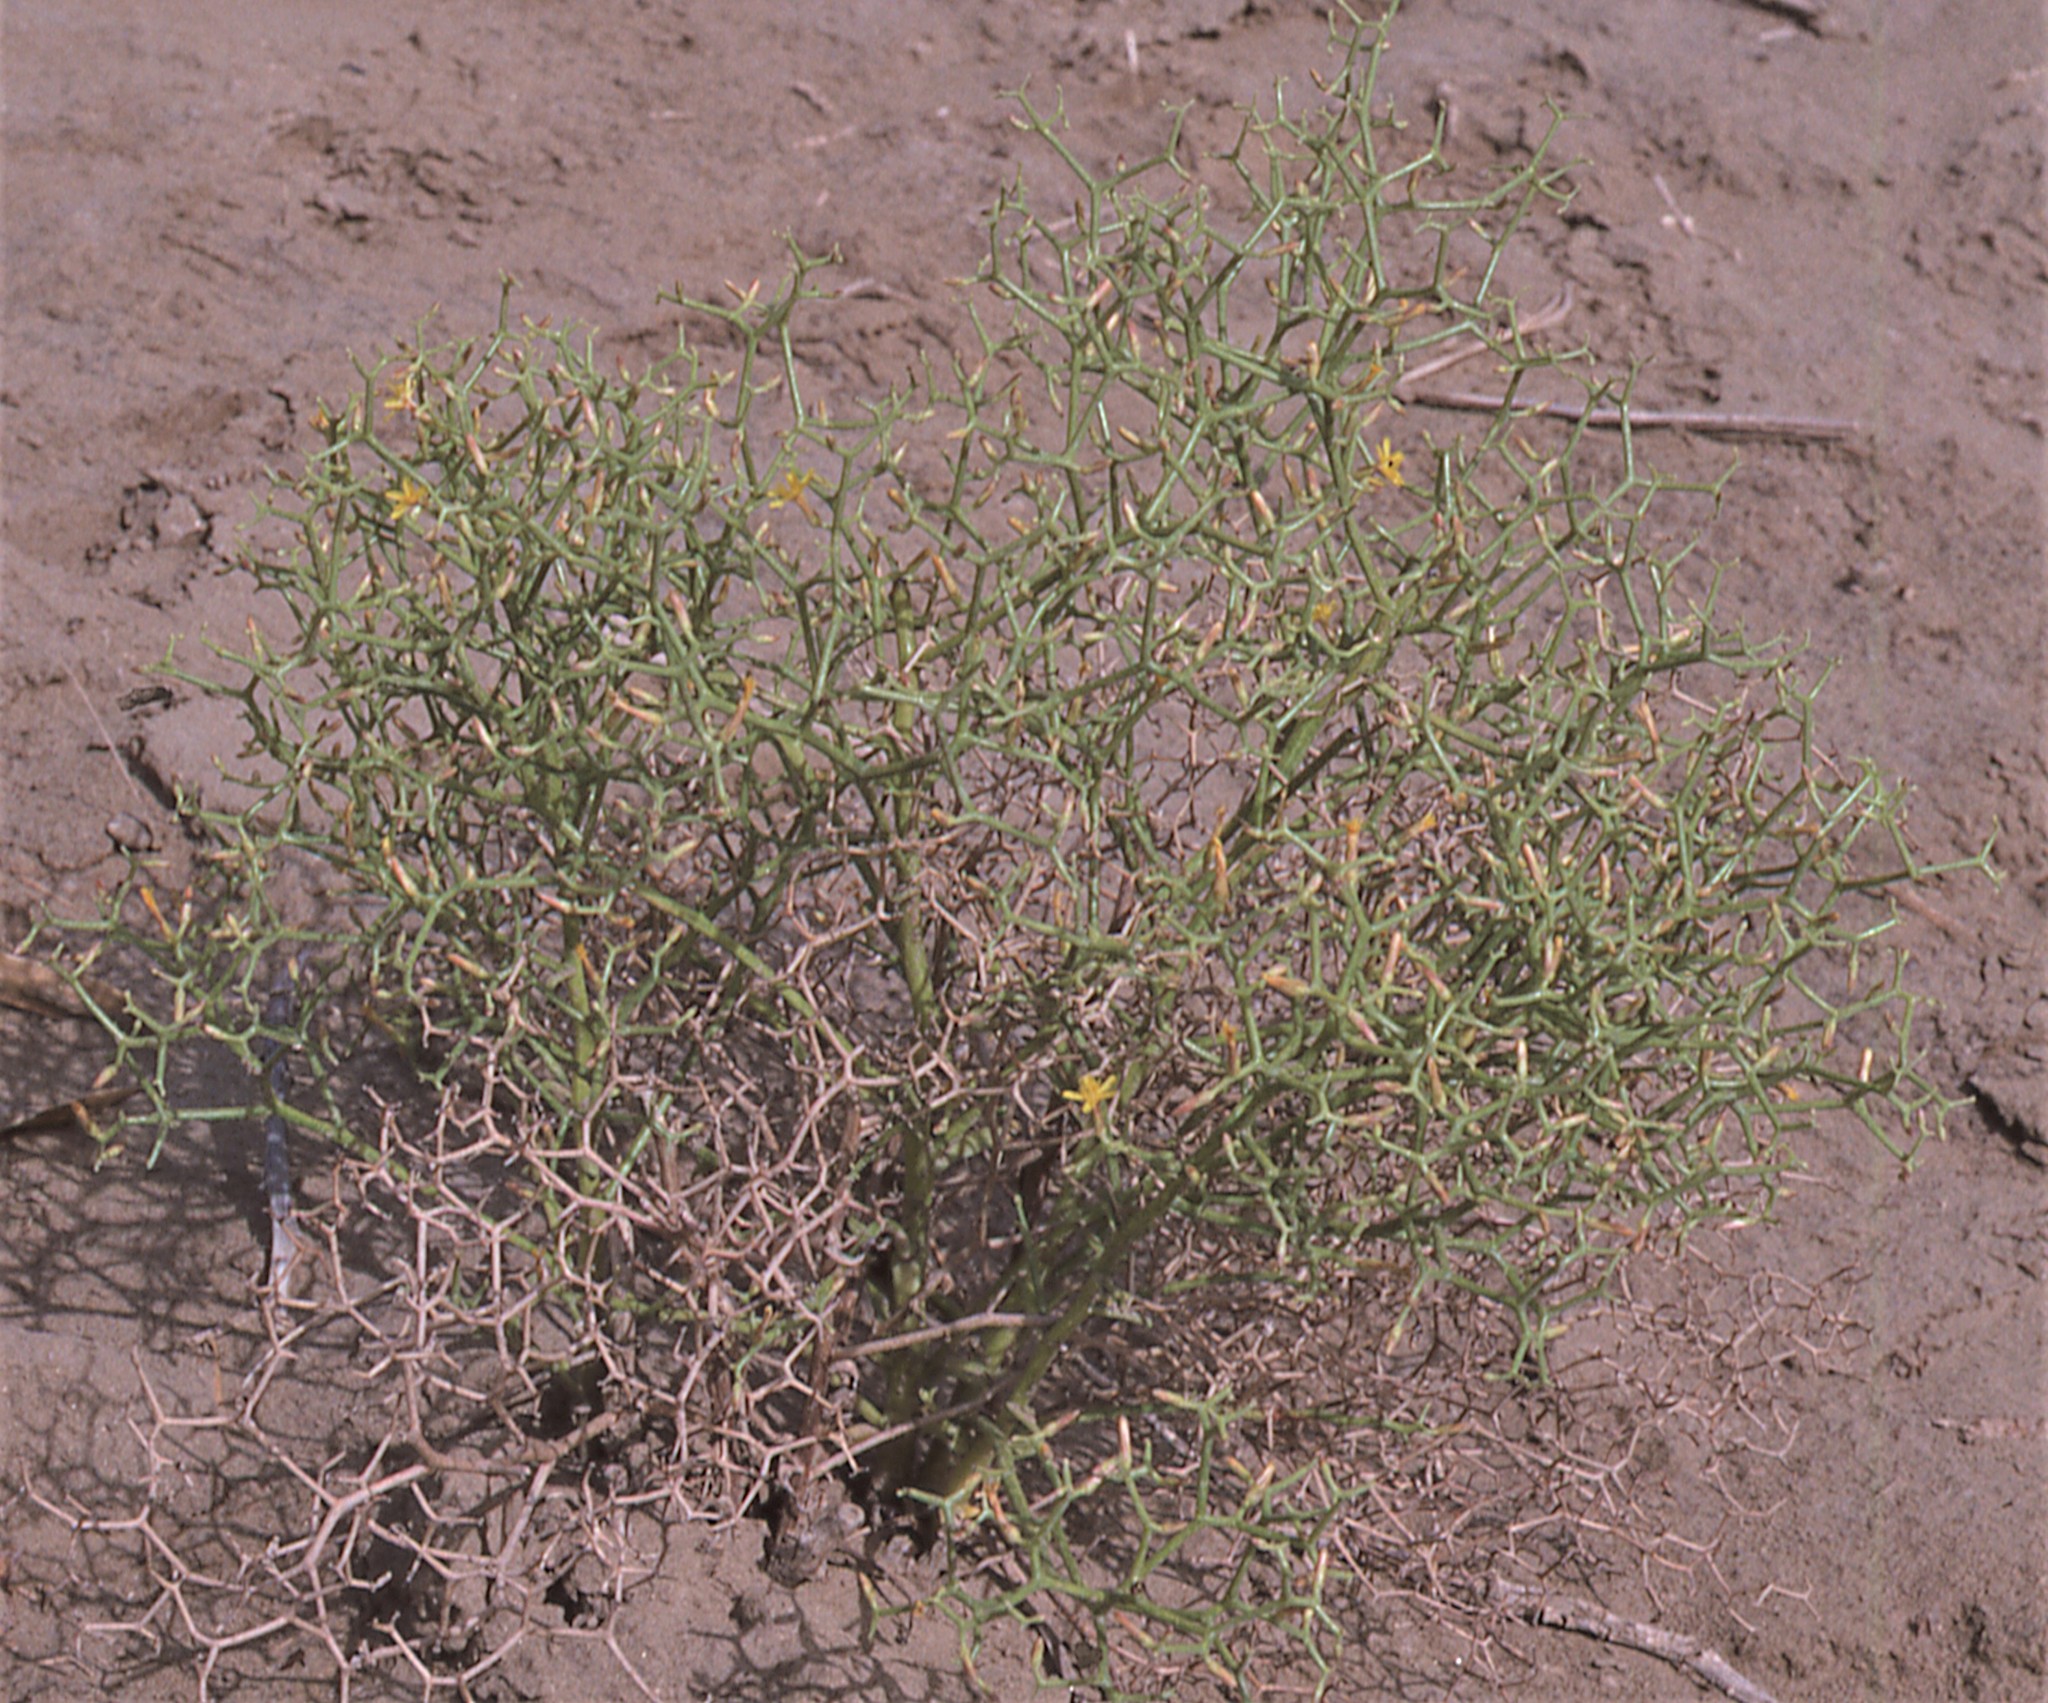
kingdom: Plantae
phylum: Tracheophyta
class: Magnoliopsida
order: Asterales
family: Asteraceae
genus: Takhtajaniantha
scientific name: Takhtajaniantha pseudodivaricata
